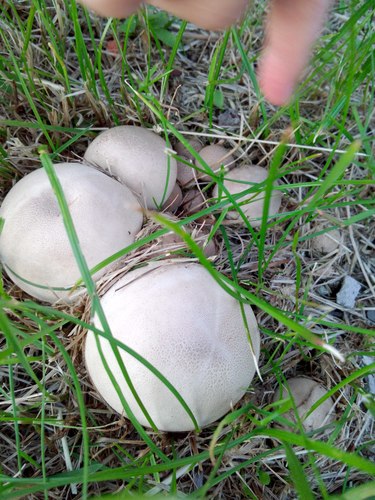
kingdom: Fungi
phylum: Basidiomycota
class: Agaricomycetes
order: Agaricales
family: Lycoperdaceae
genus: Lycoperdon
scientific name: Lycoperdon
